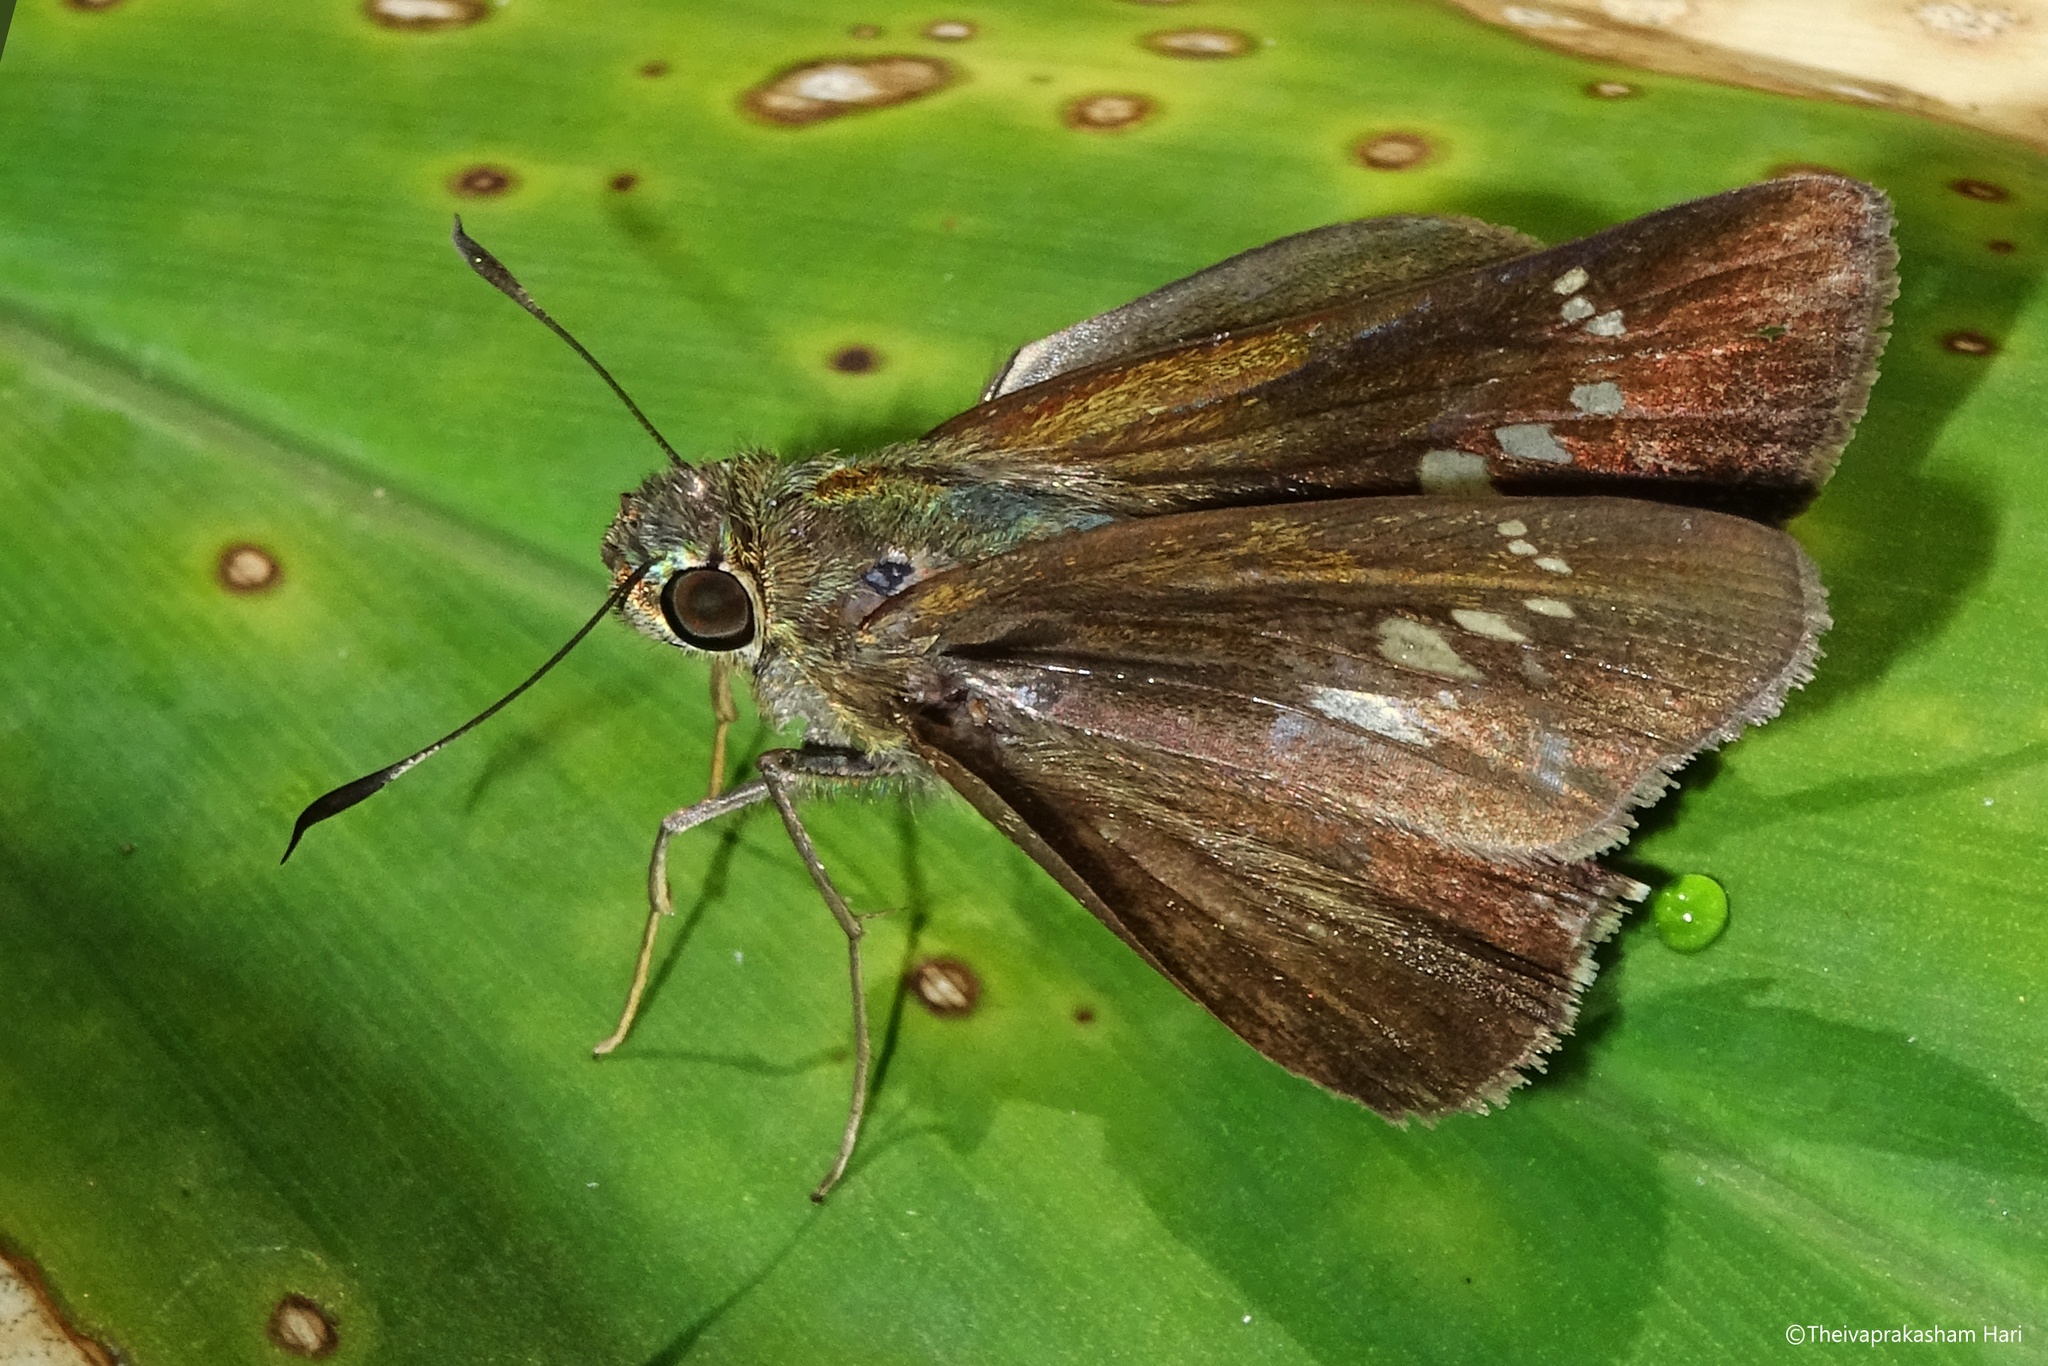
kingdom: Animalia
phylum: Arthropoda
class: Insecta
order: Lepidoptera
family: Hesperiidae
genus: Caltoris
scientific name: Caltoris kumara
